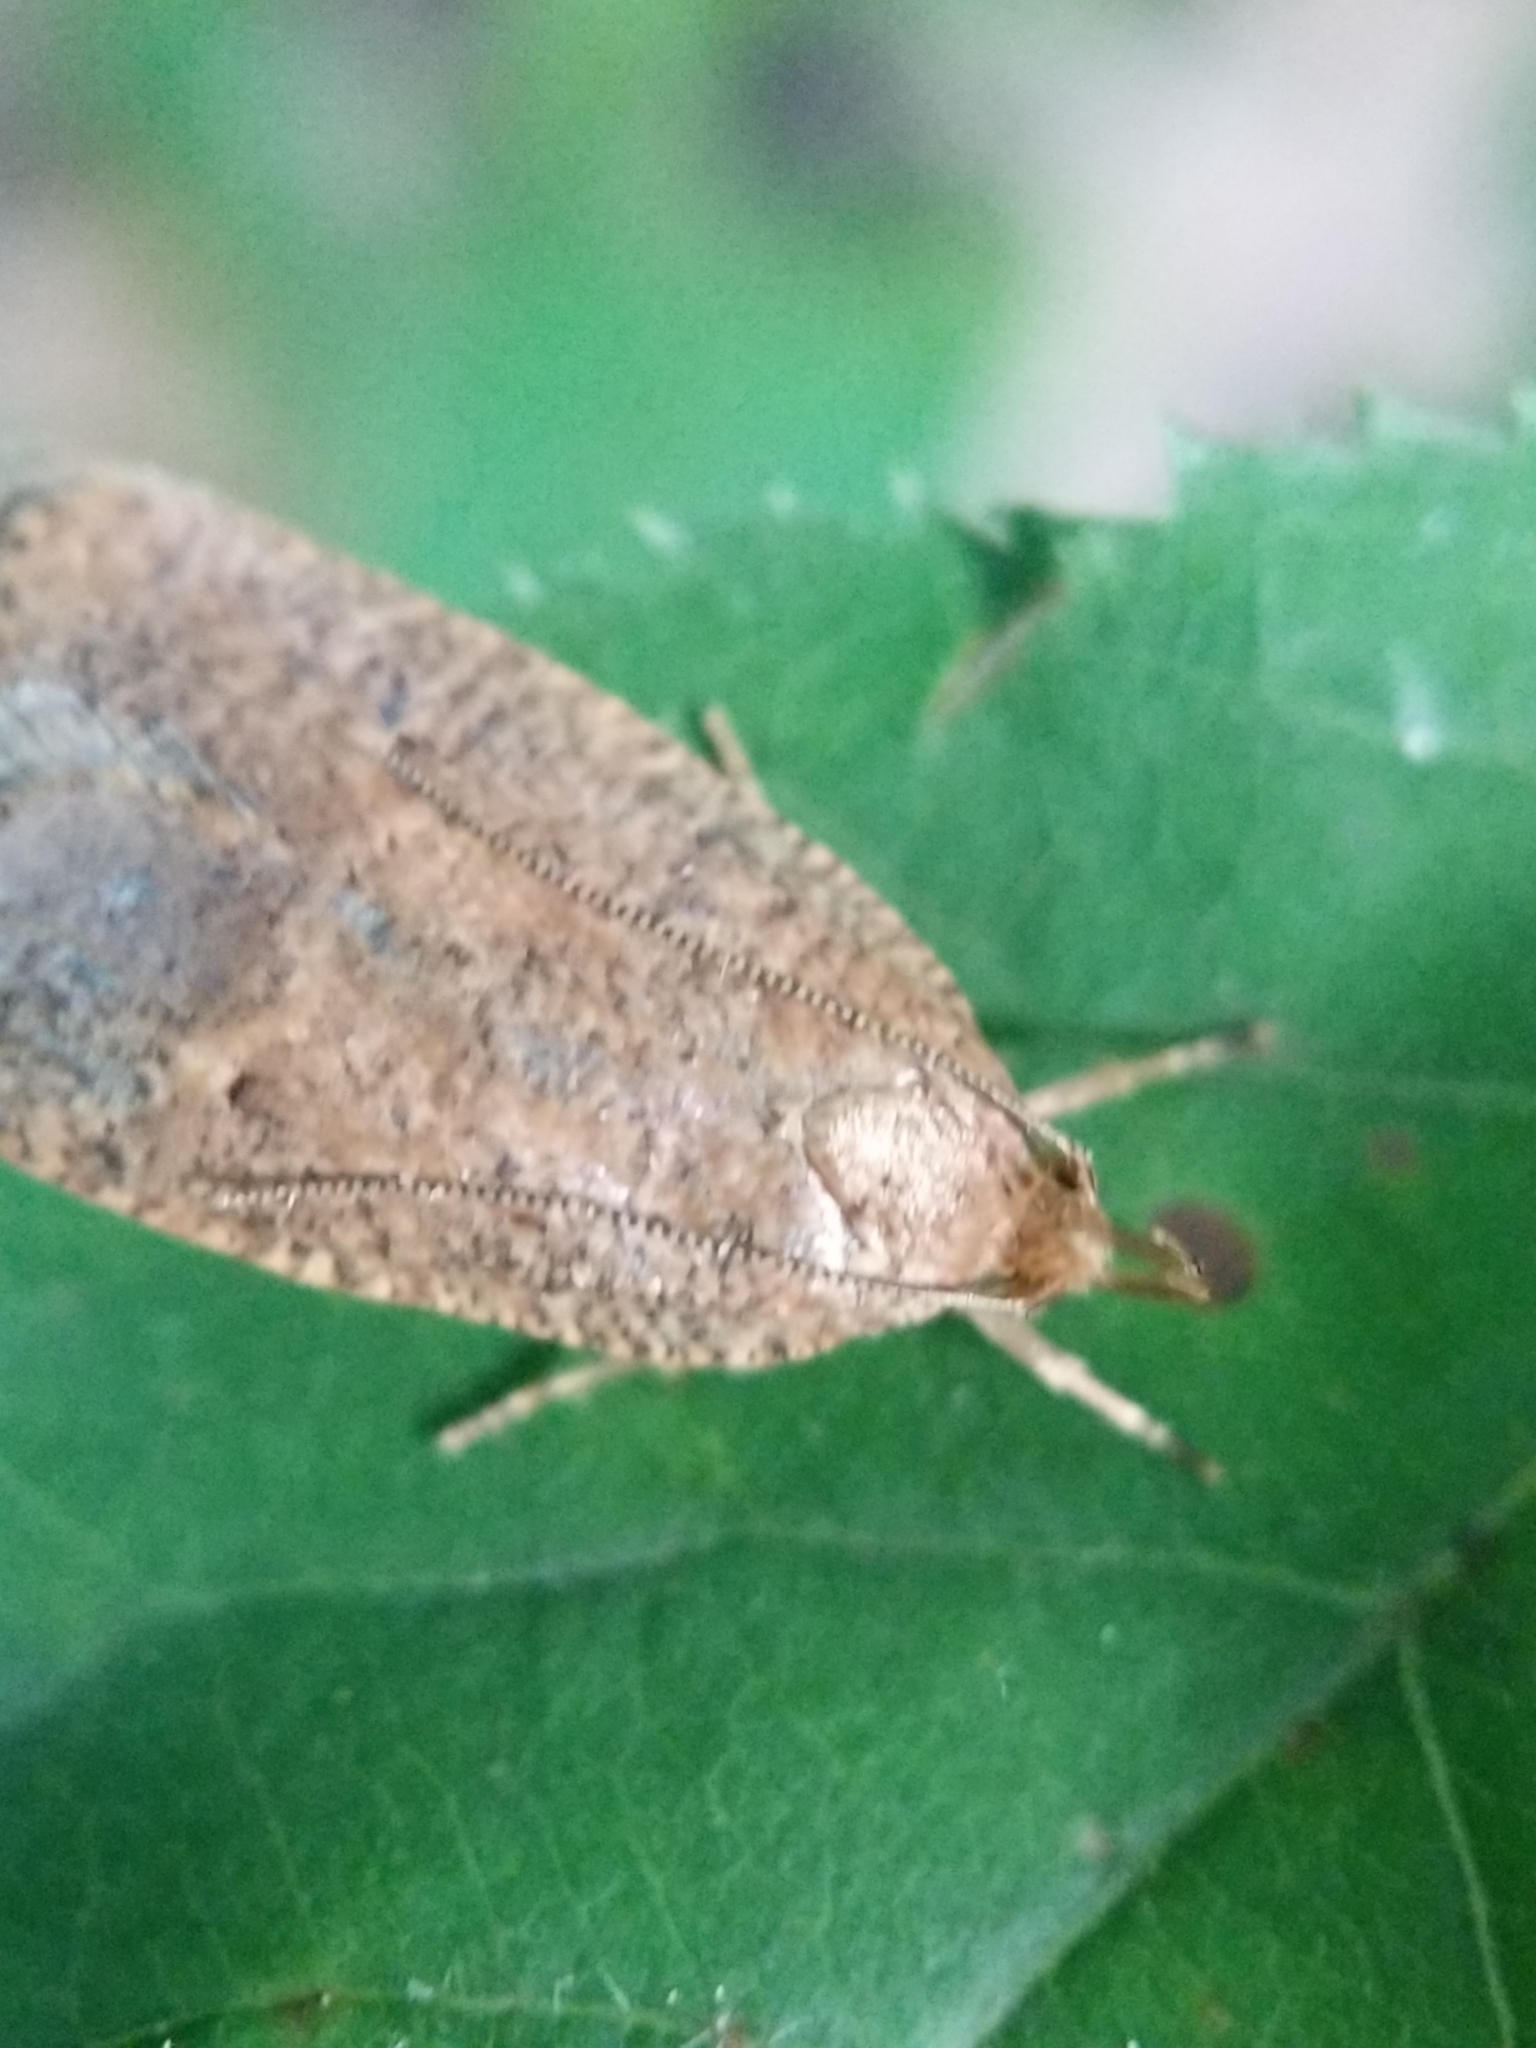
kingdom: Animalia
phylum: Arthropoda
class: Insecta
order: Lepidoptera
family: Depressariidae
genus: Psilocorsis
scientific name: Psilocorsis reflexella
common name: Dotted leaftier moth
